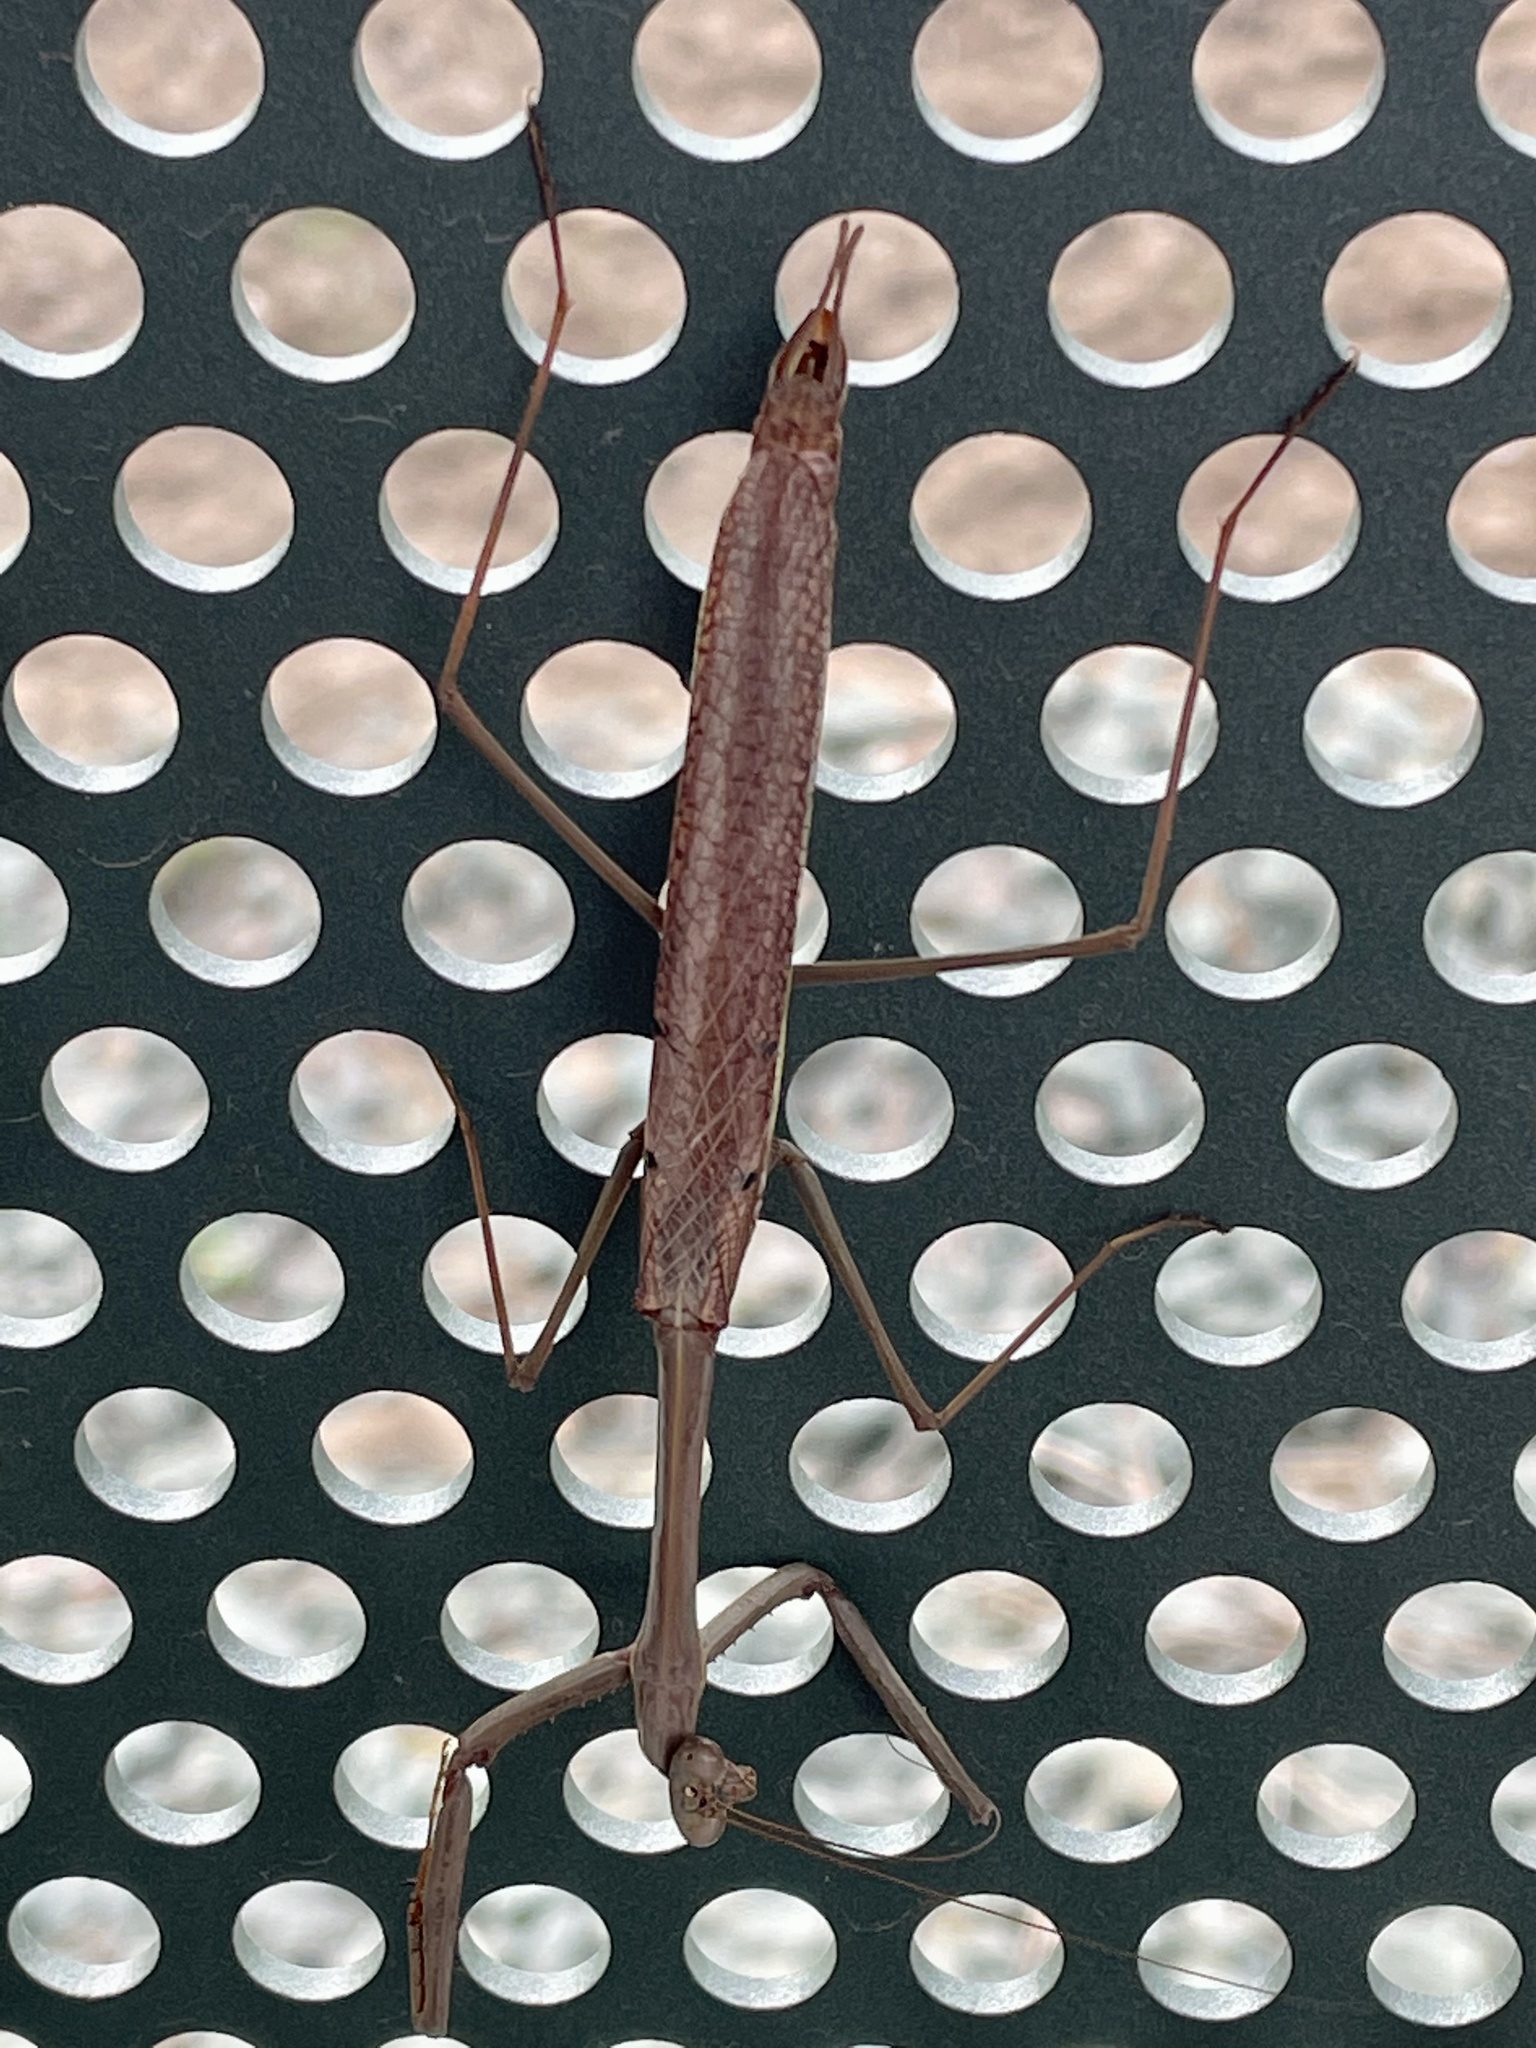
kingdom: Animalia
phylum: Arthropoda
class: Insecta
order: Mantodea
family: Mantidae
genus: Archimantis
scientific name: Archimantis latistyla
